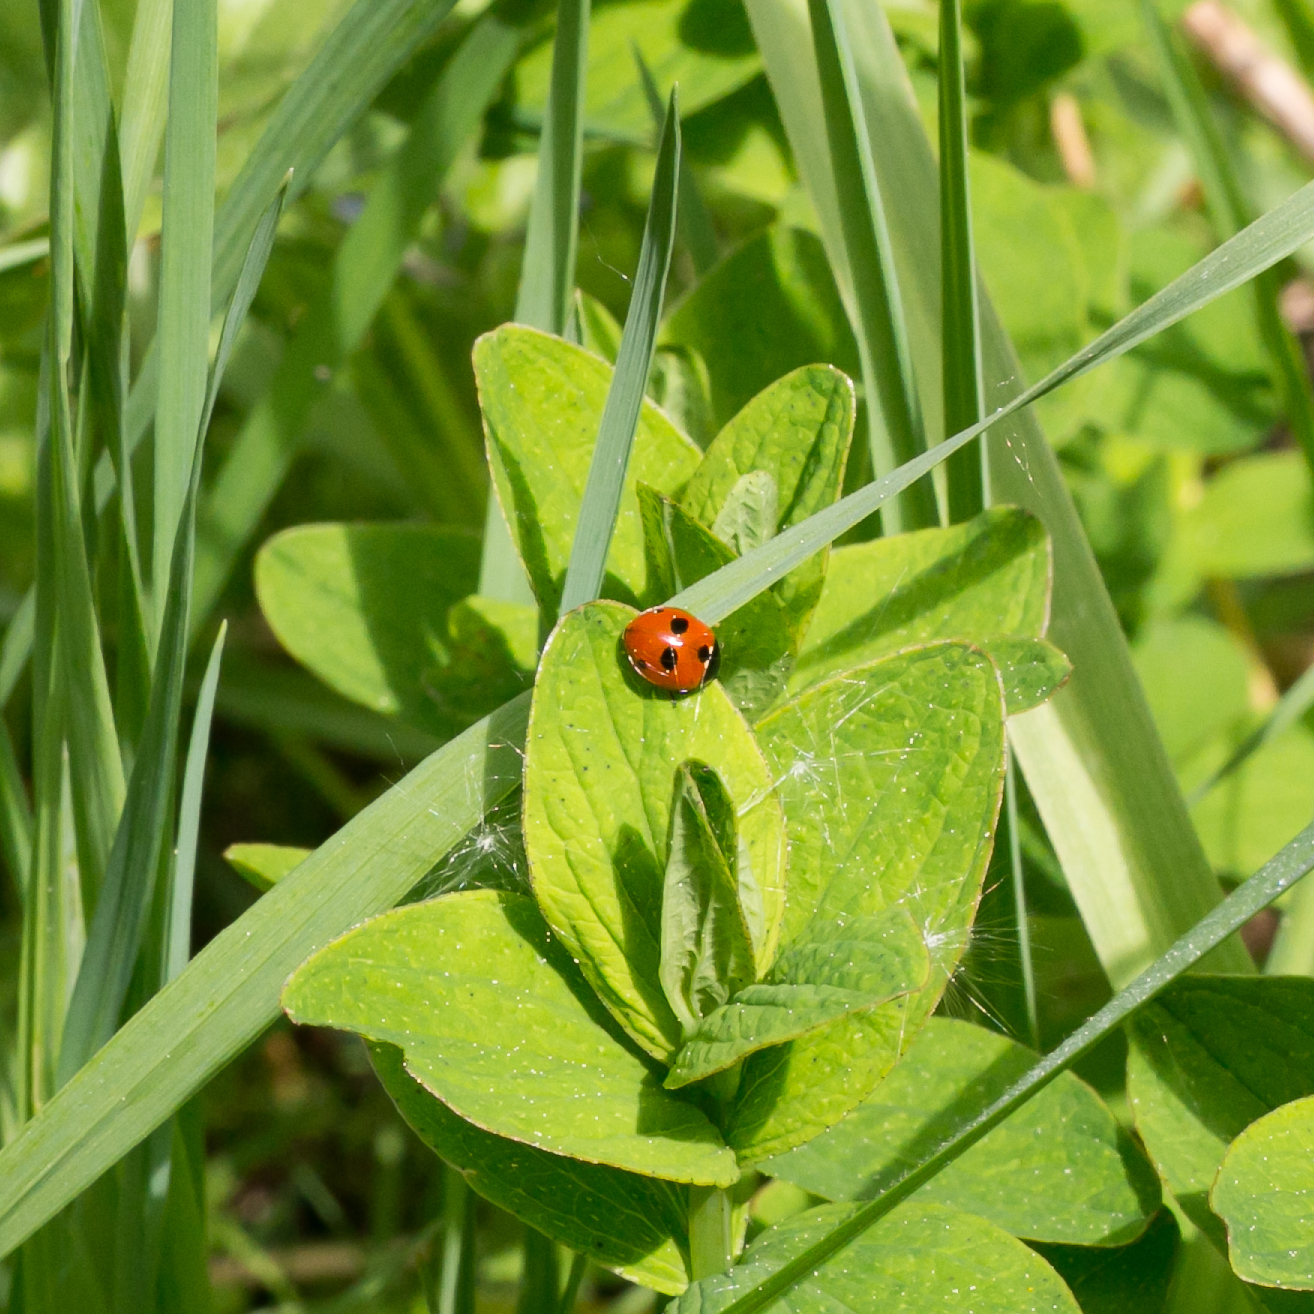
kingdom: Animalia
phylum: Arthropoda
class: Insecta
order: Coleoptera
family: Coccinellidae
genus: Coccinella
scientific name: Coccinella quinquepunctata
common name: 5-spot ladybird
